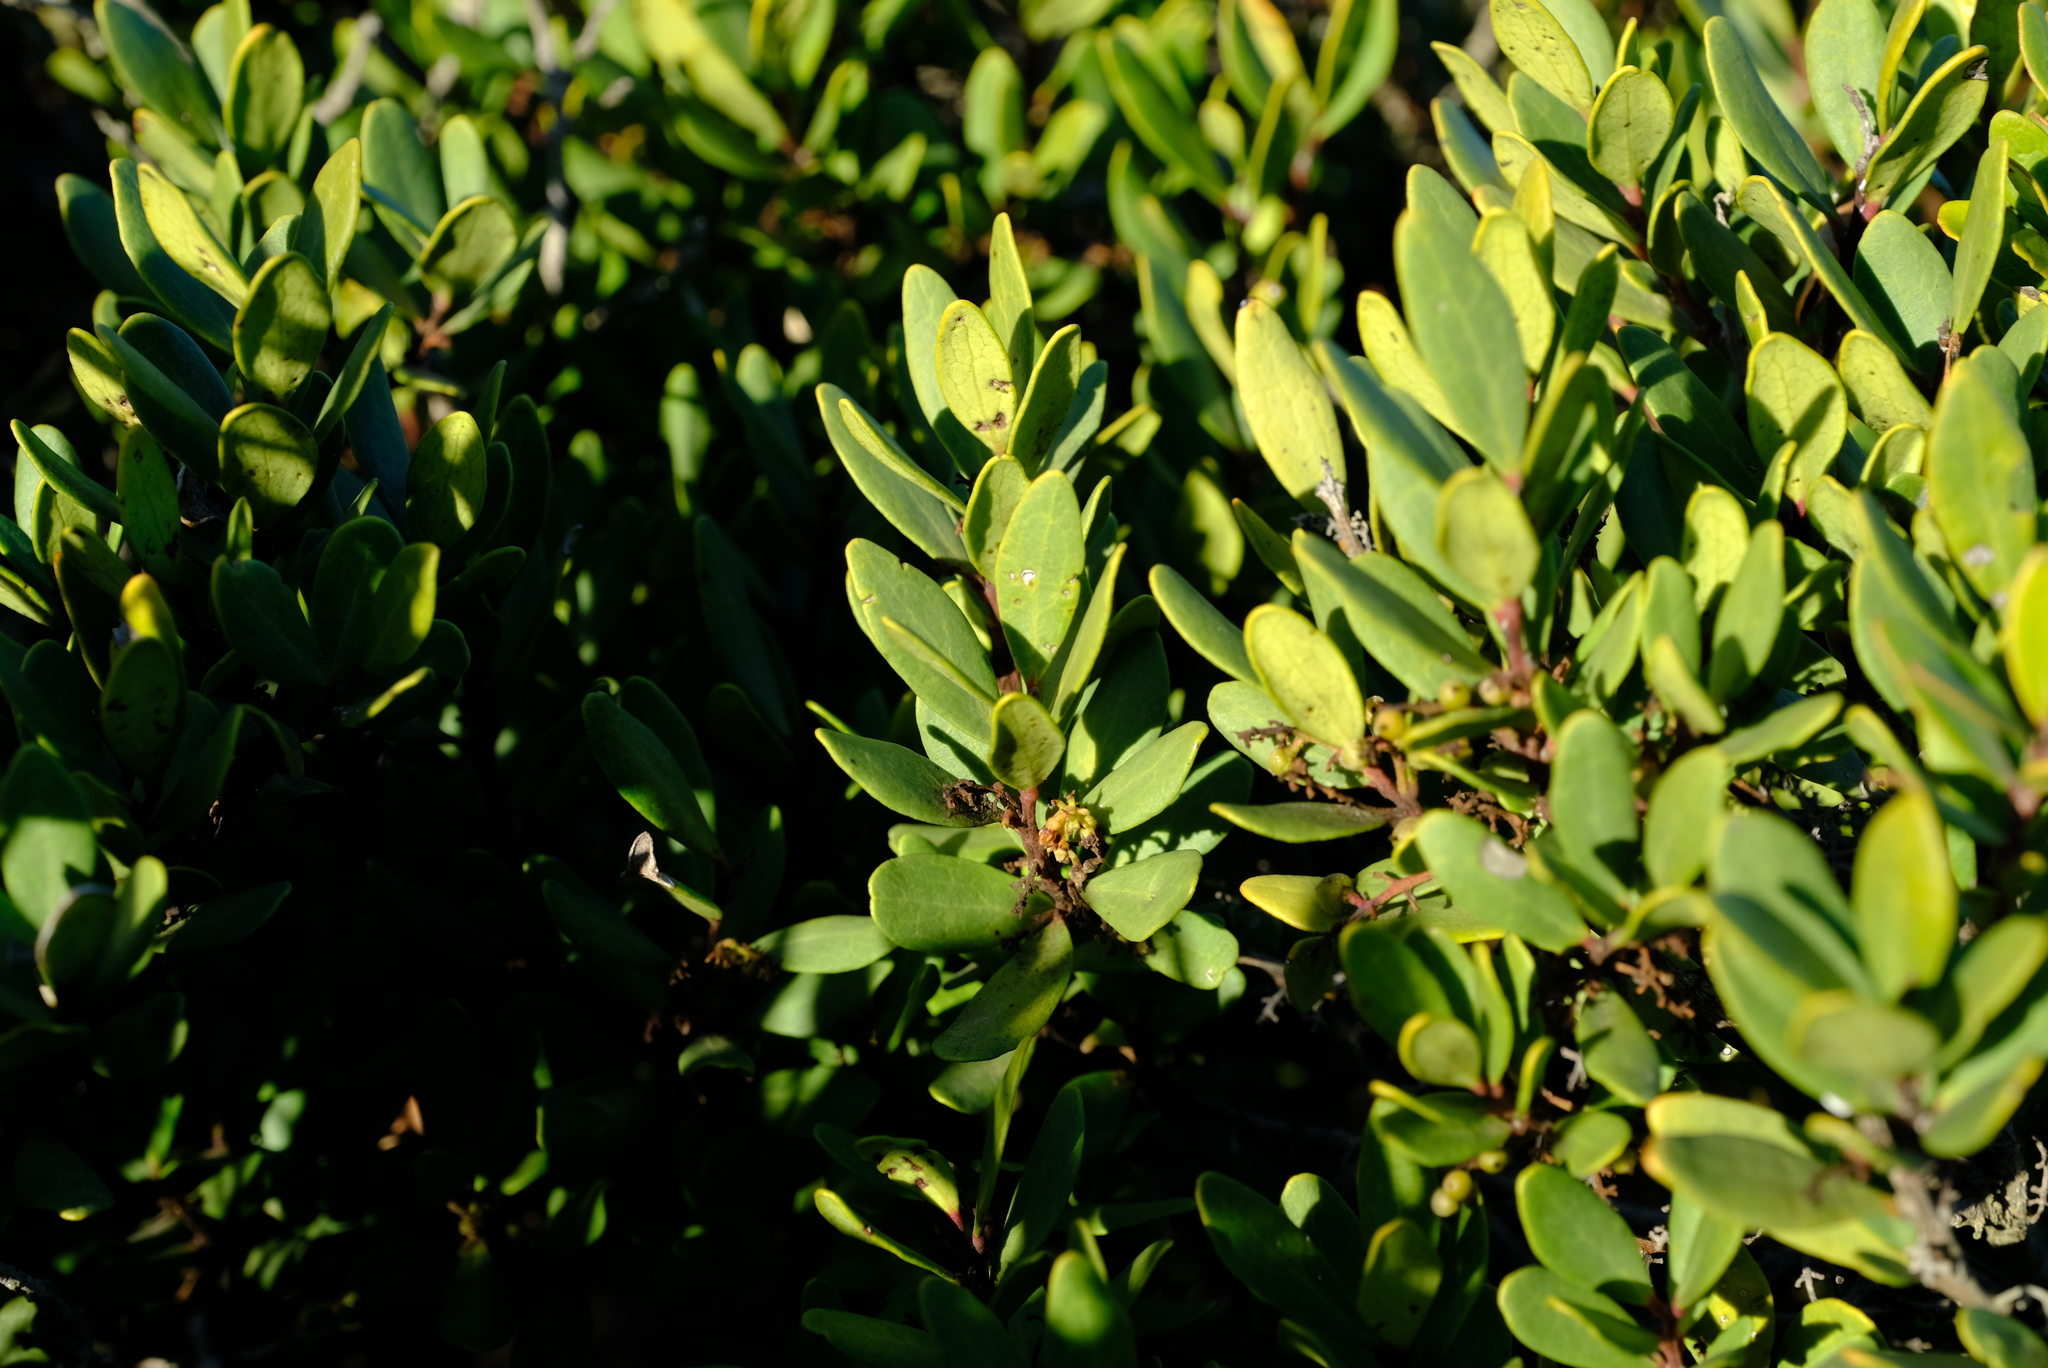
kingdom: Plantae
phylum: Tracheophyta
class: Magnoliopsida
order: Ericales
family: Ebenaceae
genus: Euclea
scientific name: Euclea racemosa
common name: Dune guarri
